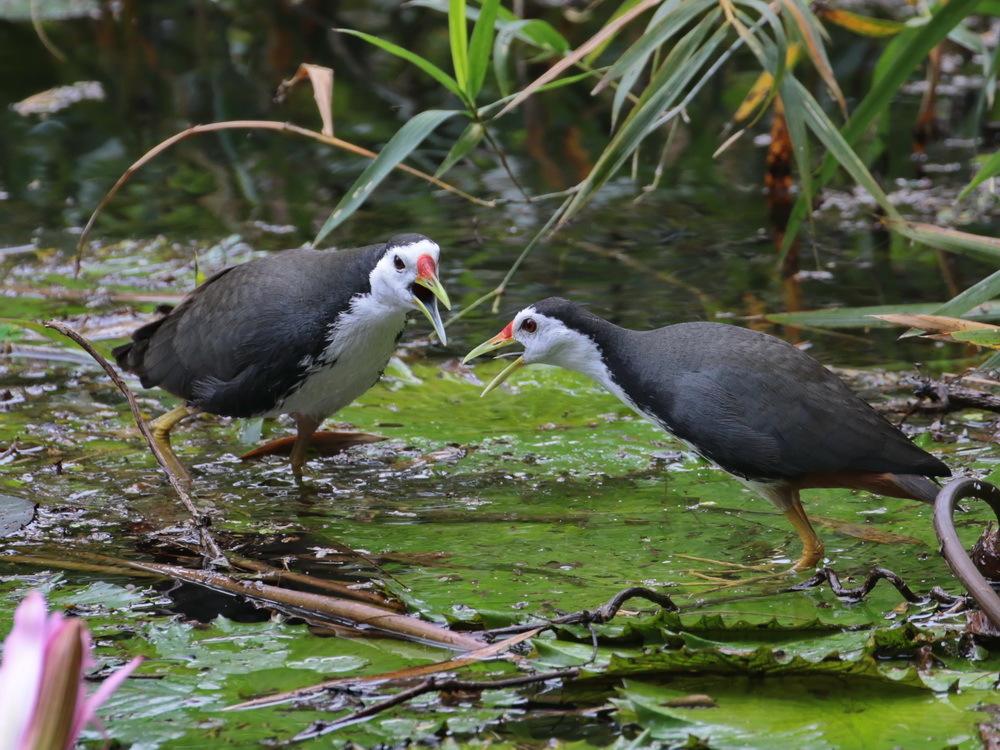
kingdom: Animalia
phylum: Chordata
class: Aves
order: Gruiformes
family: Rallidae
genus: Amaurornis
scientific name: Amaurornis phoenicurus
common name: White-breasted waterhen
